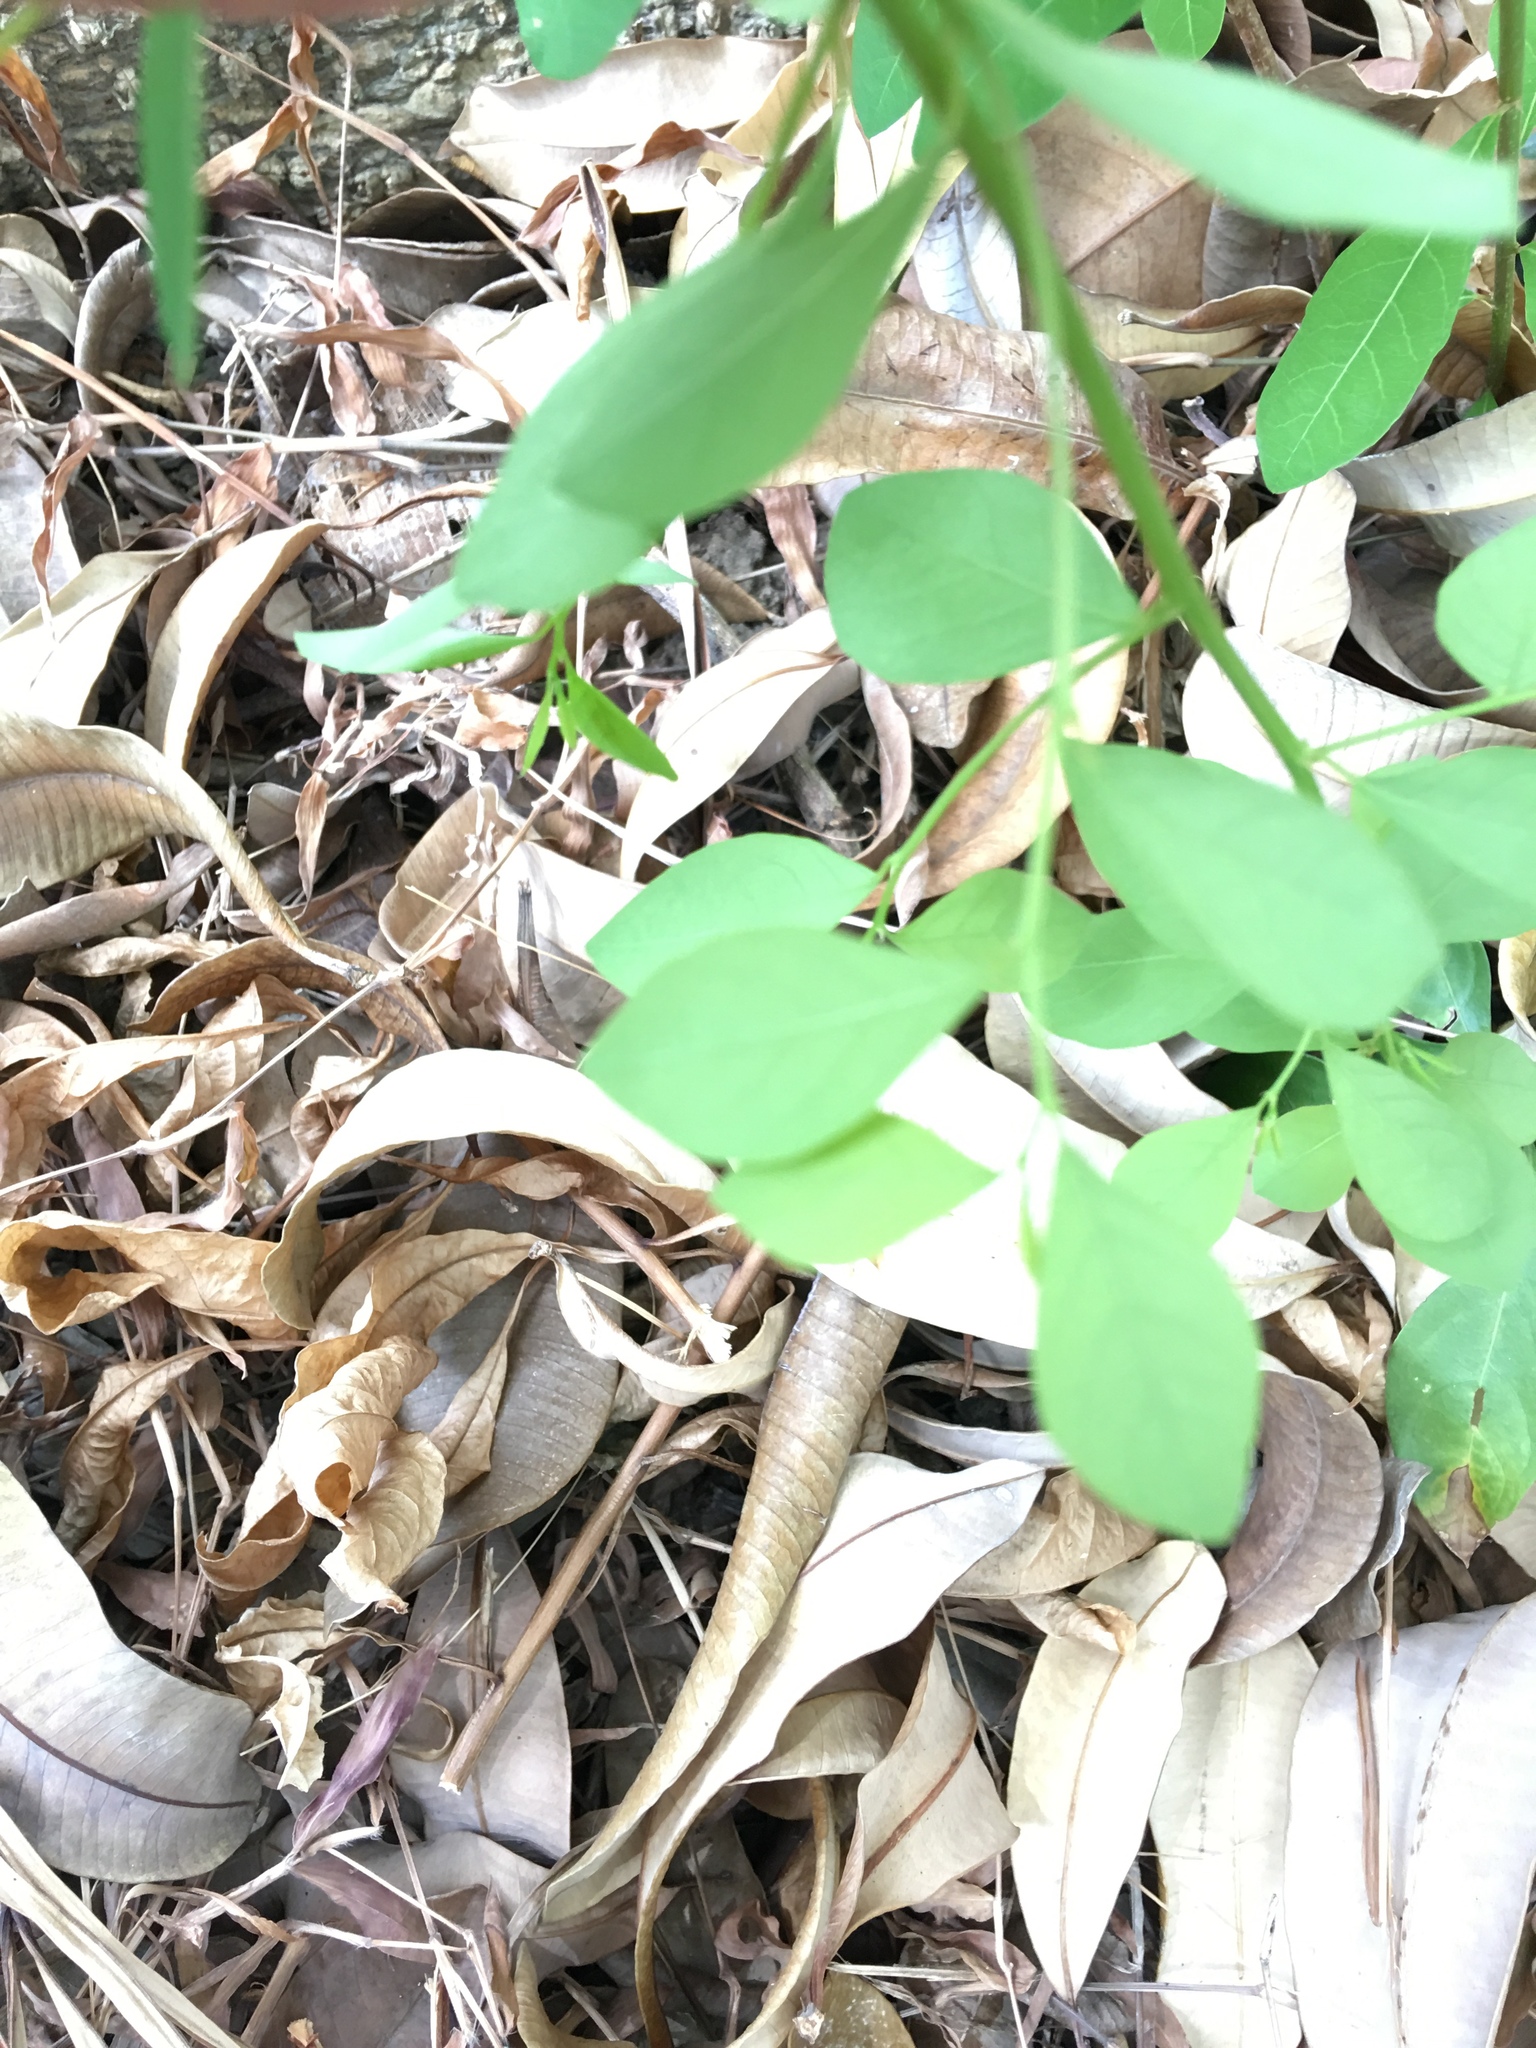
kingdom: Plantae
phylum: Tracheophyta
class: Magnoliopsida
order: Malpighiales
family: Phyllanthaceae
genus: Flueggea
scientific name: Flueggea virosa
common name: Common bushweed
